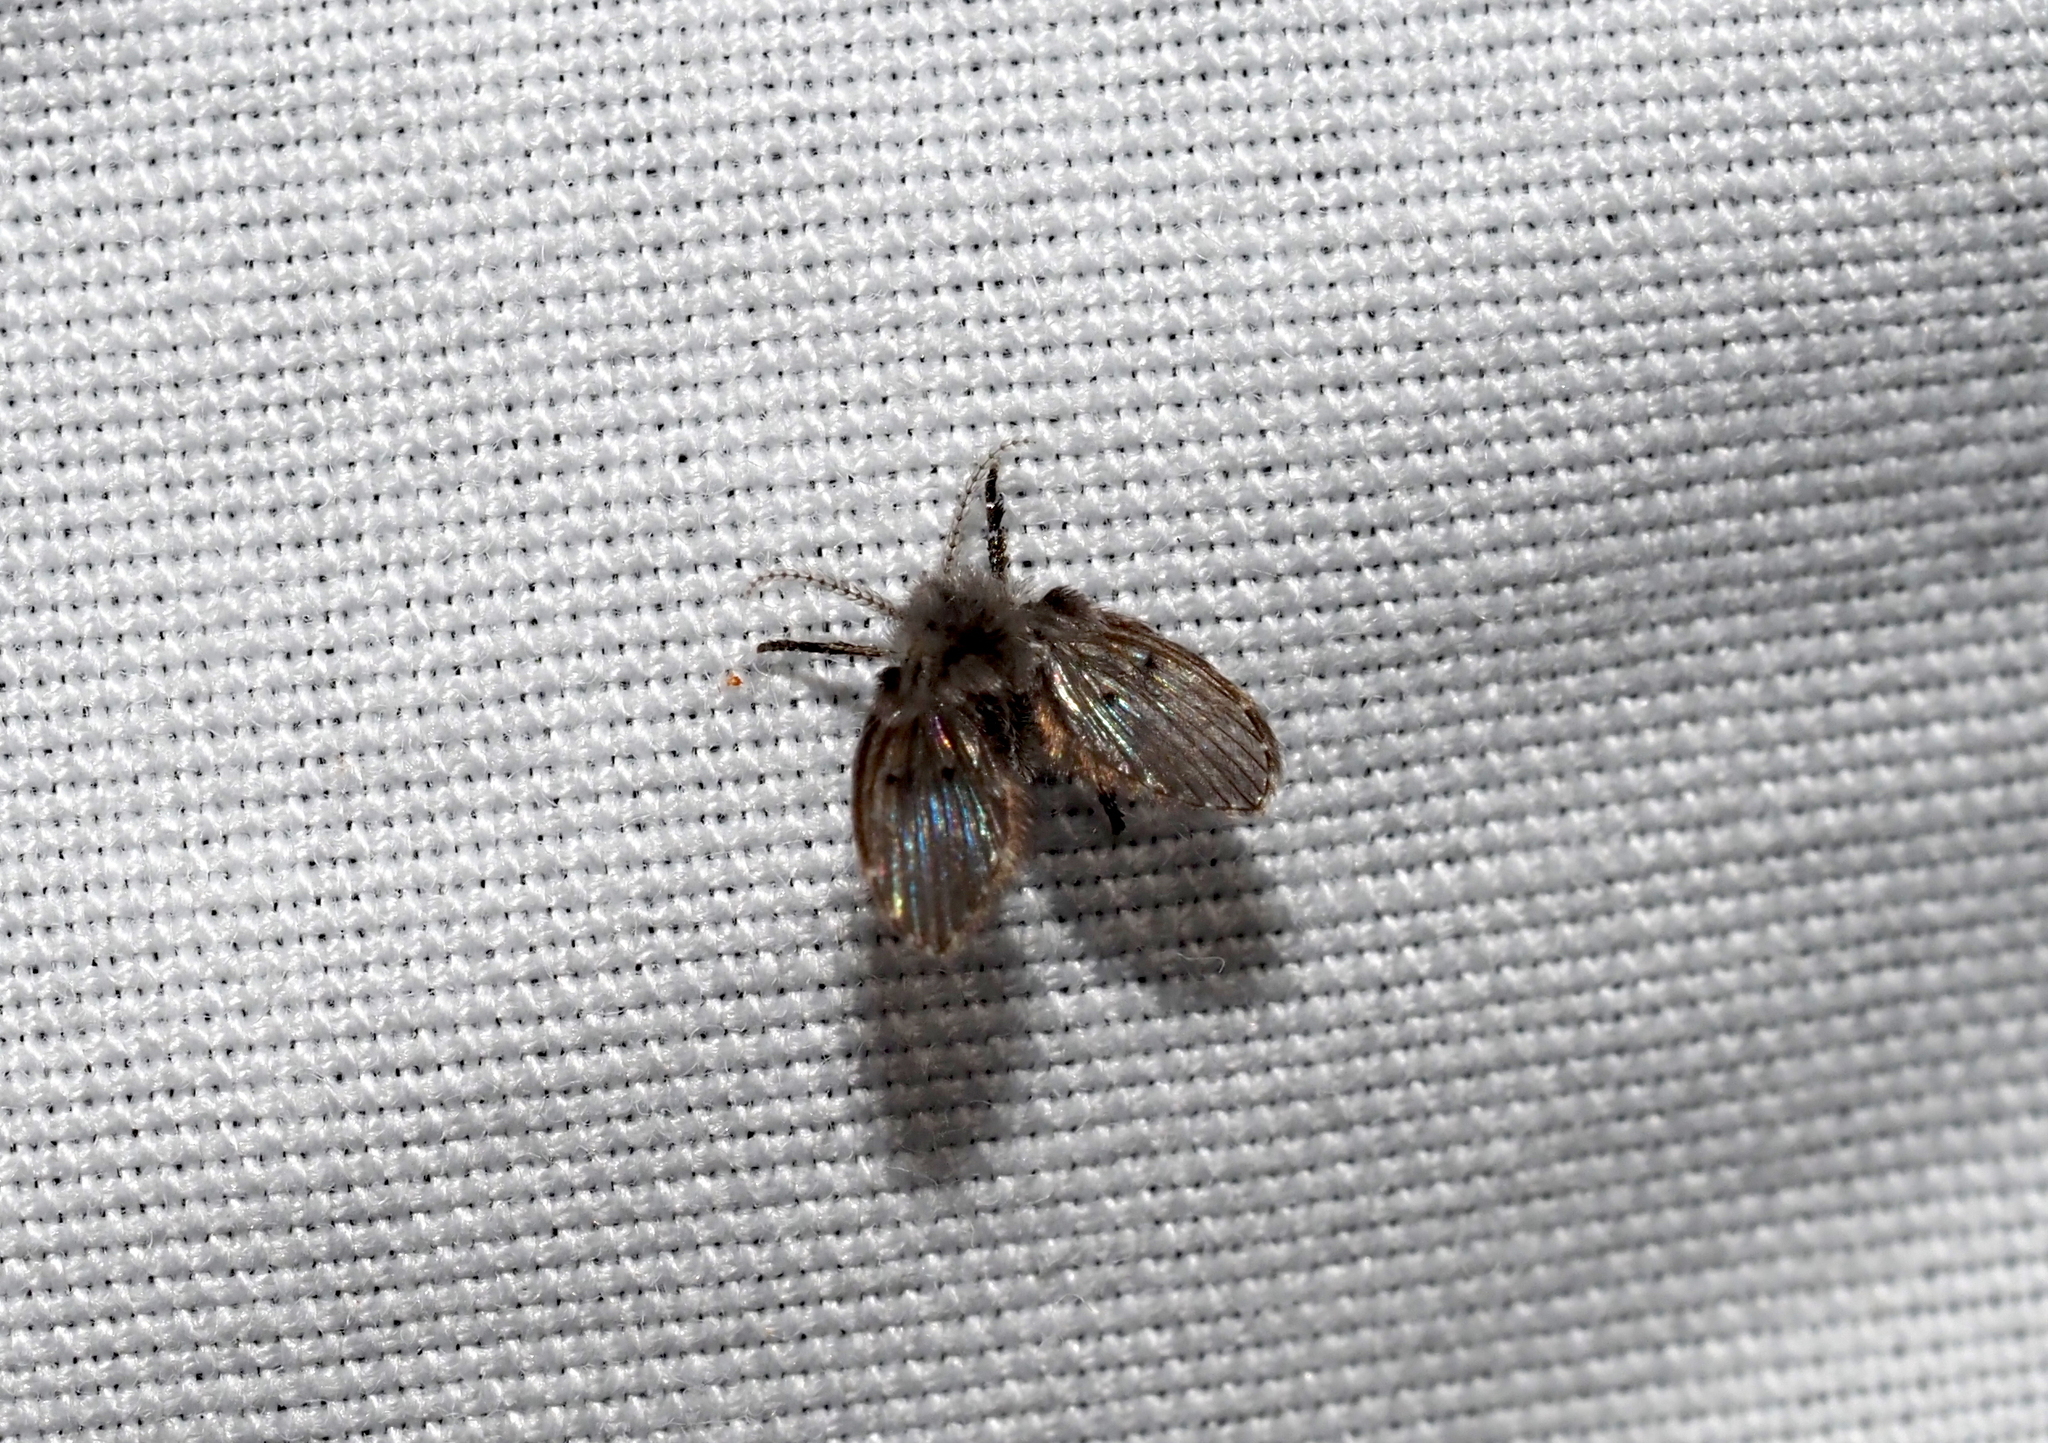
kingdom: Animalia
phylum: Arthropoda
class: Insecta
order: Diptera
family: Psychodidae
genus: Clogmia
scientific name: Clogmia albipunctatus
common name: White-spotted moth fly
